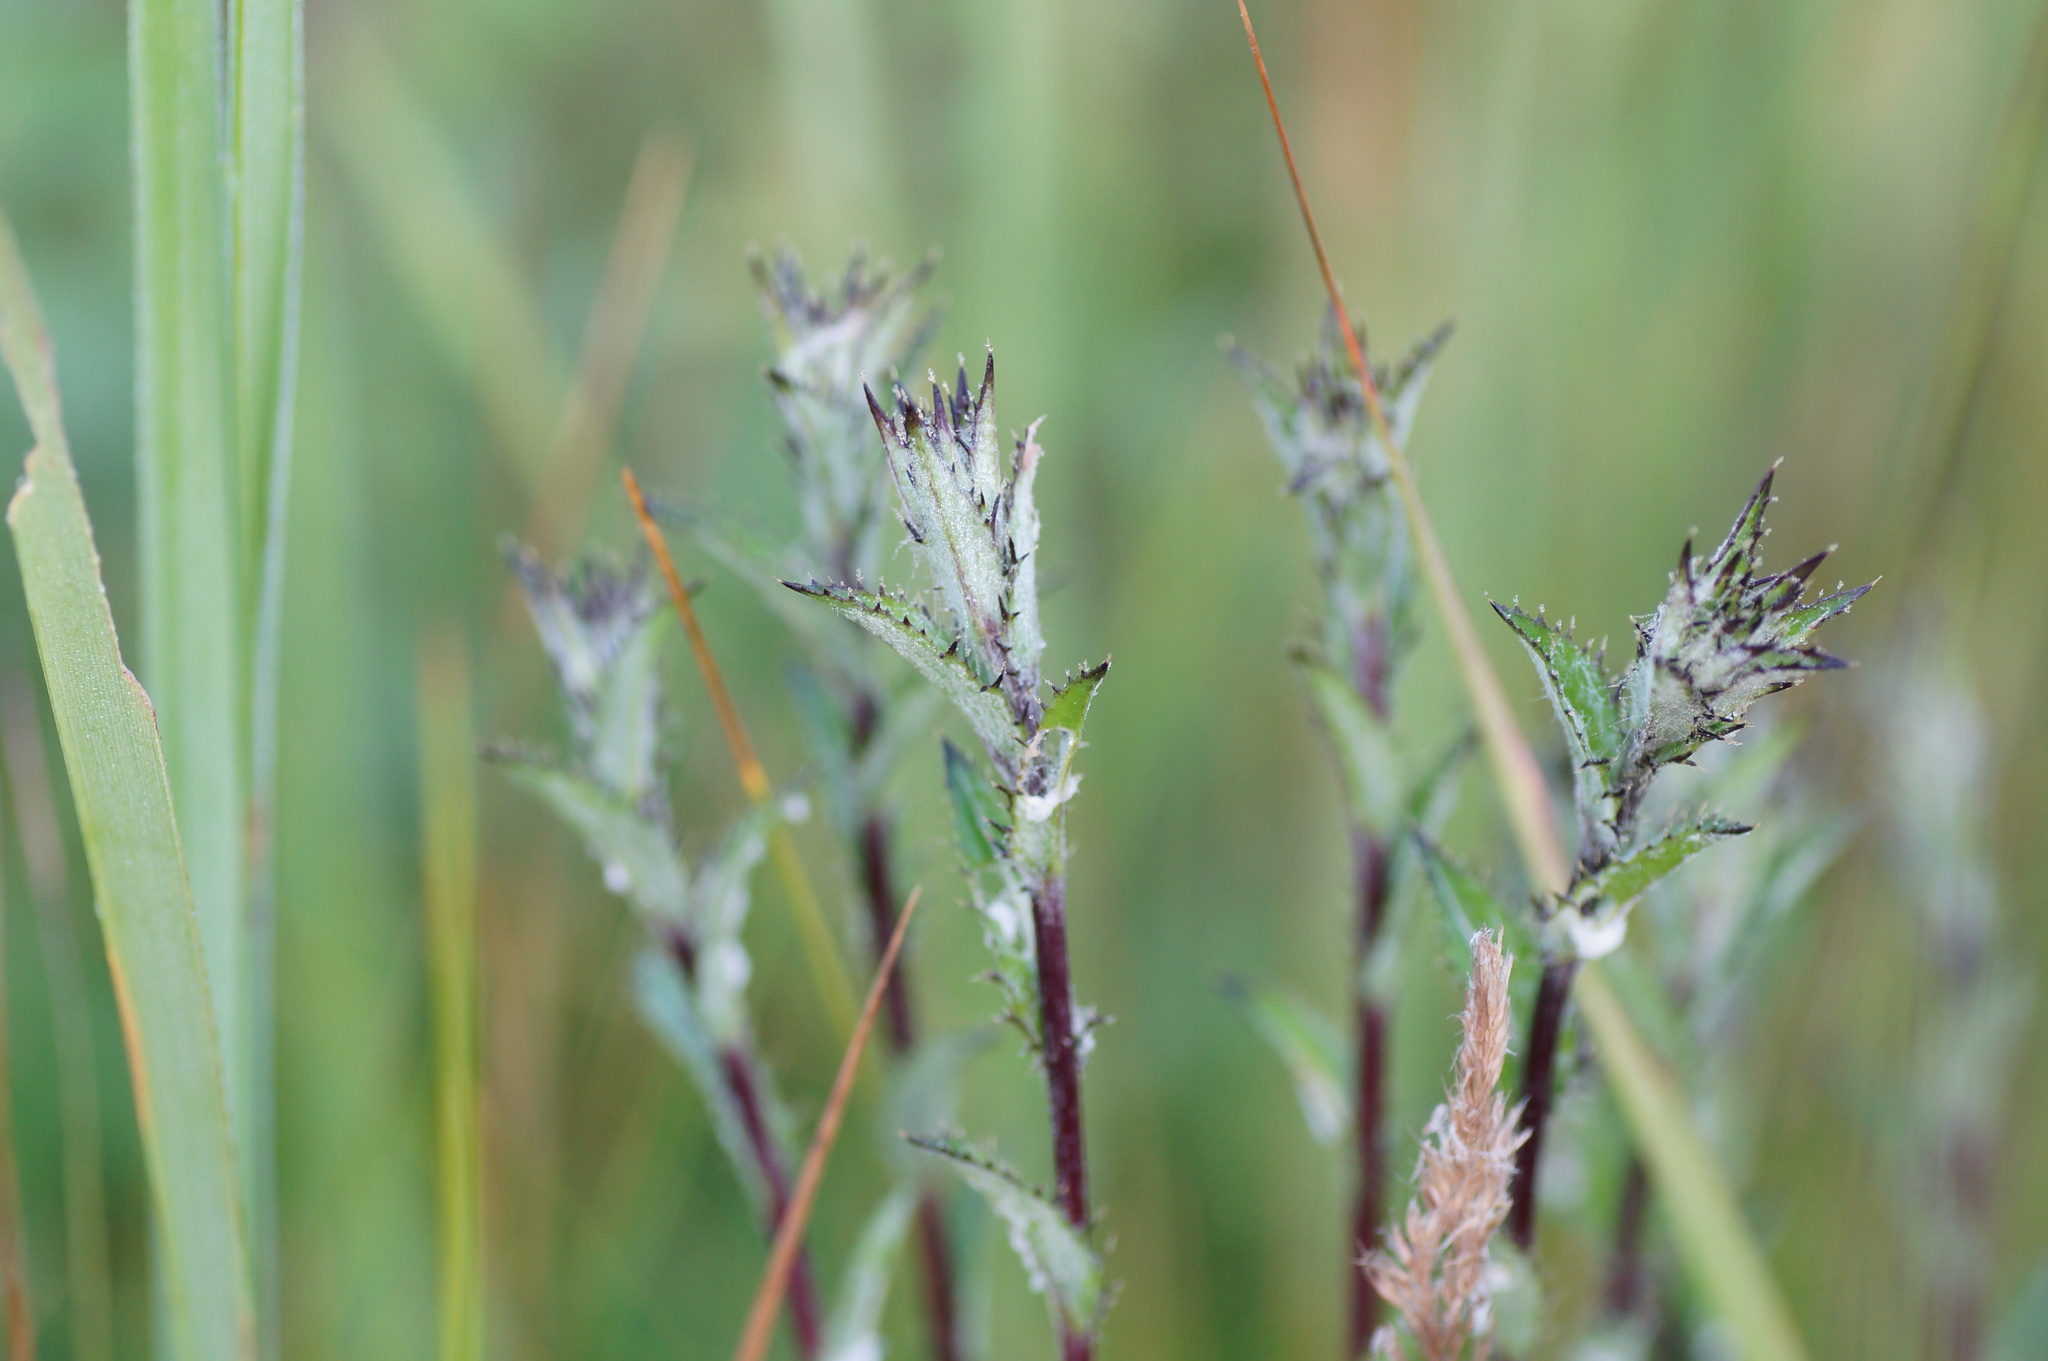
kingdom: Plantae
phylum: Tracheophyta
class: Magnoliopsida
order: Asterales
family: Asteraceae
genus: Carlina
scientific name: Carlina biebersteinii
